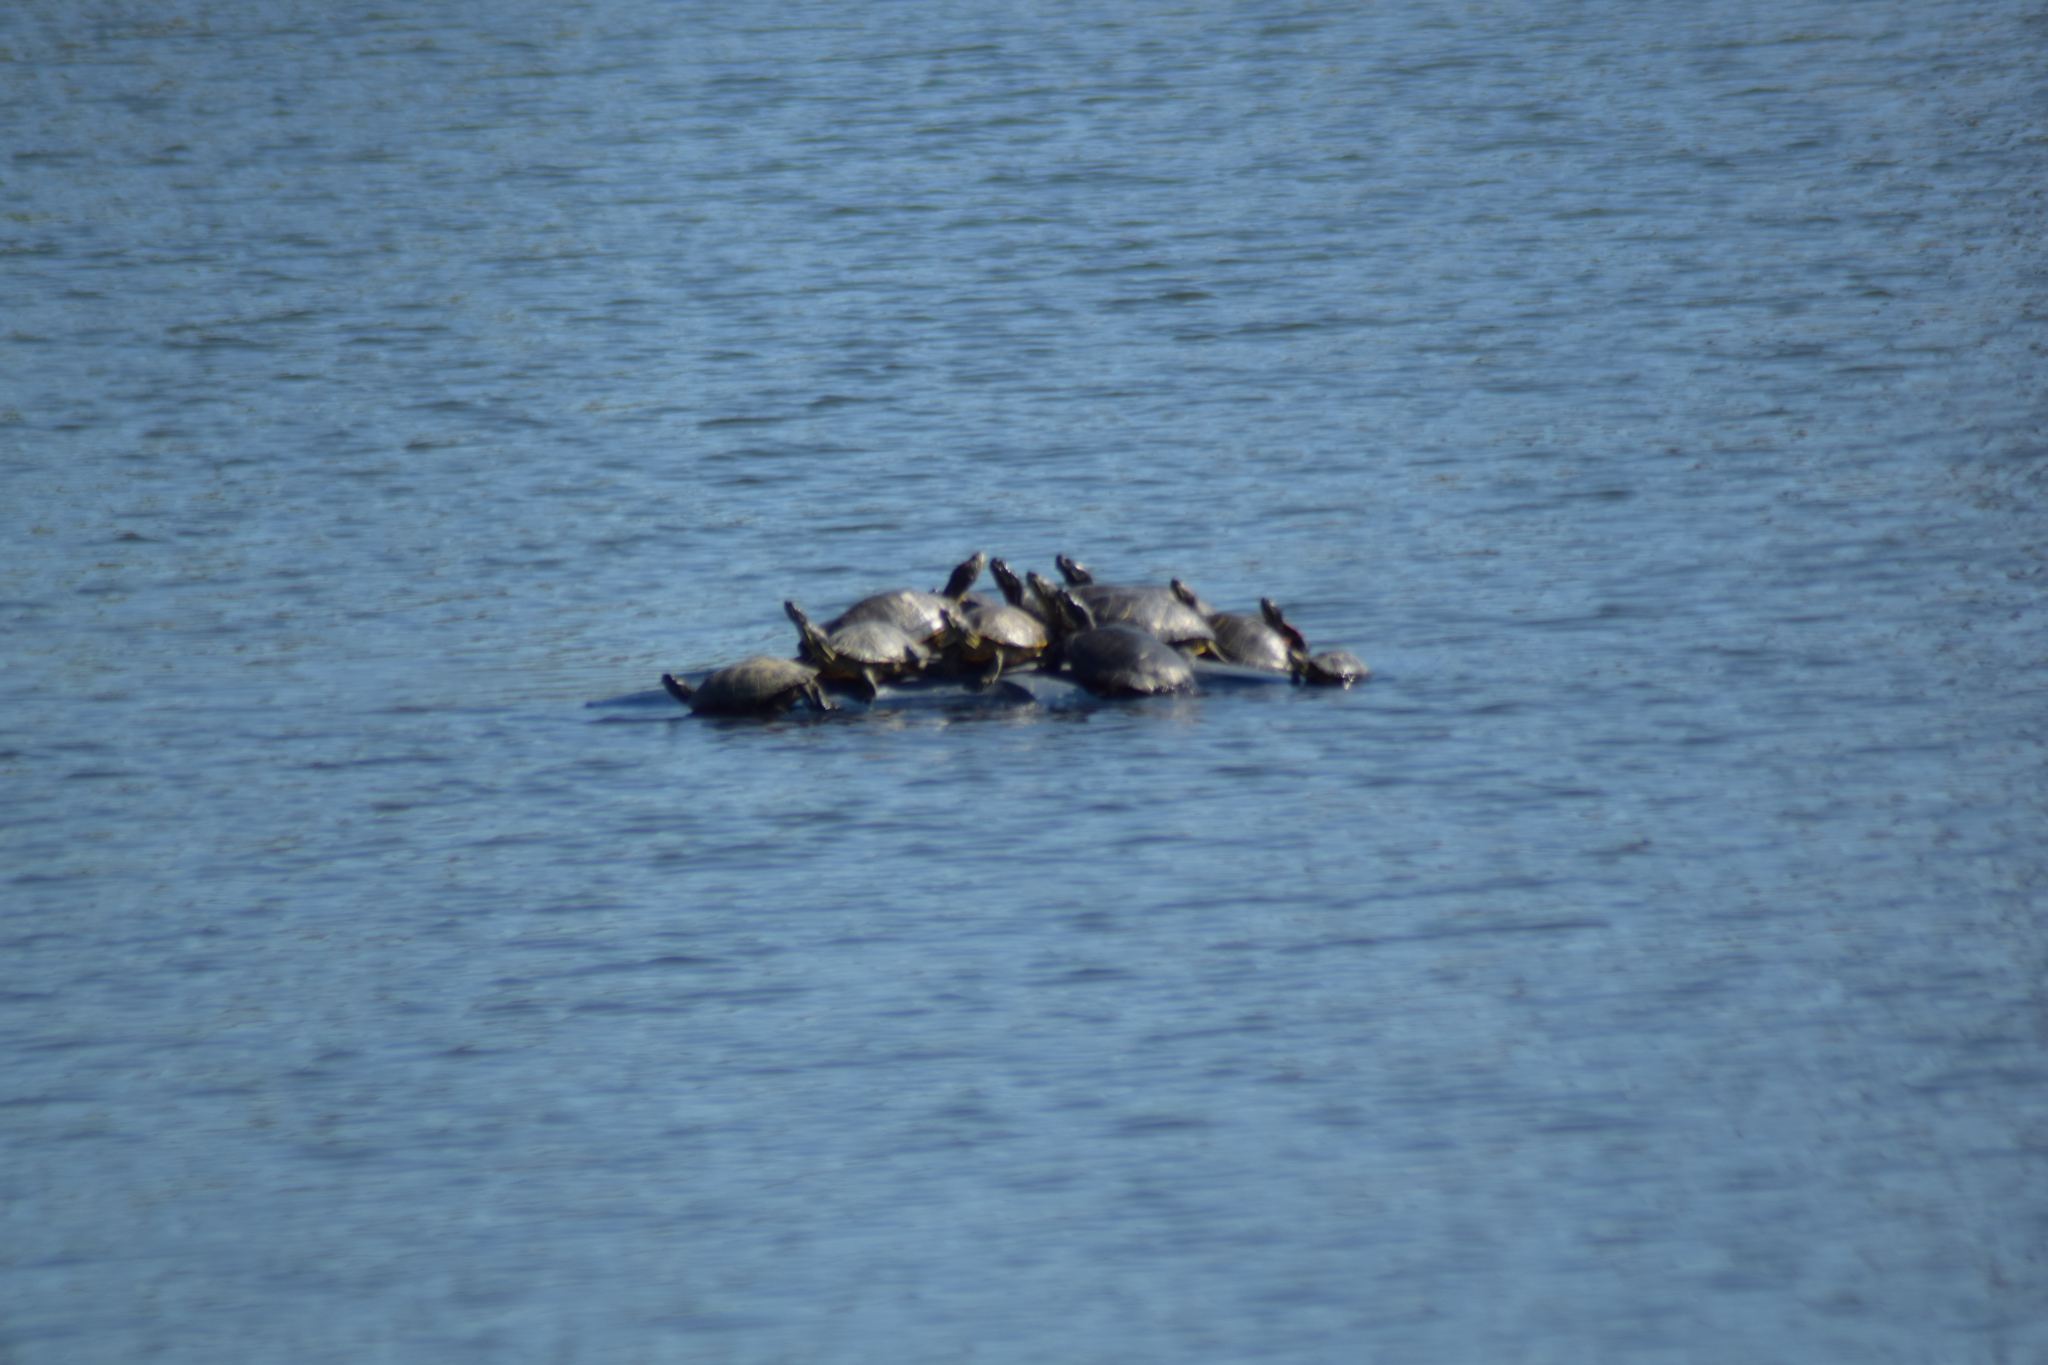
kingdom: Animalia
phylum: Chordata
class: Testudines
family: Emydidae
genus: Pseudemys
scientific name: Pseudemys rubriventris
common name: American red-bellied turtle
